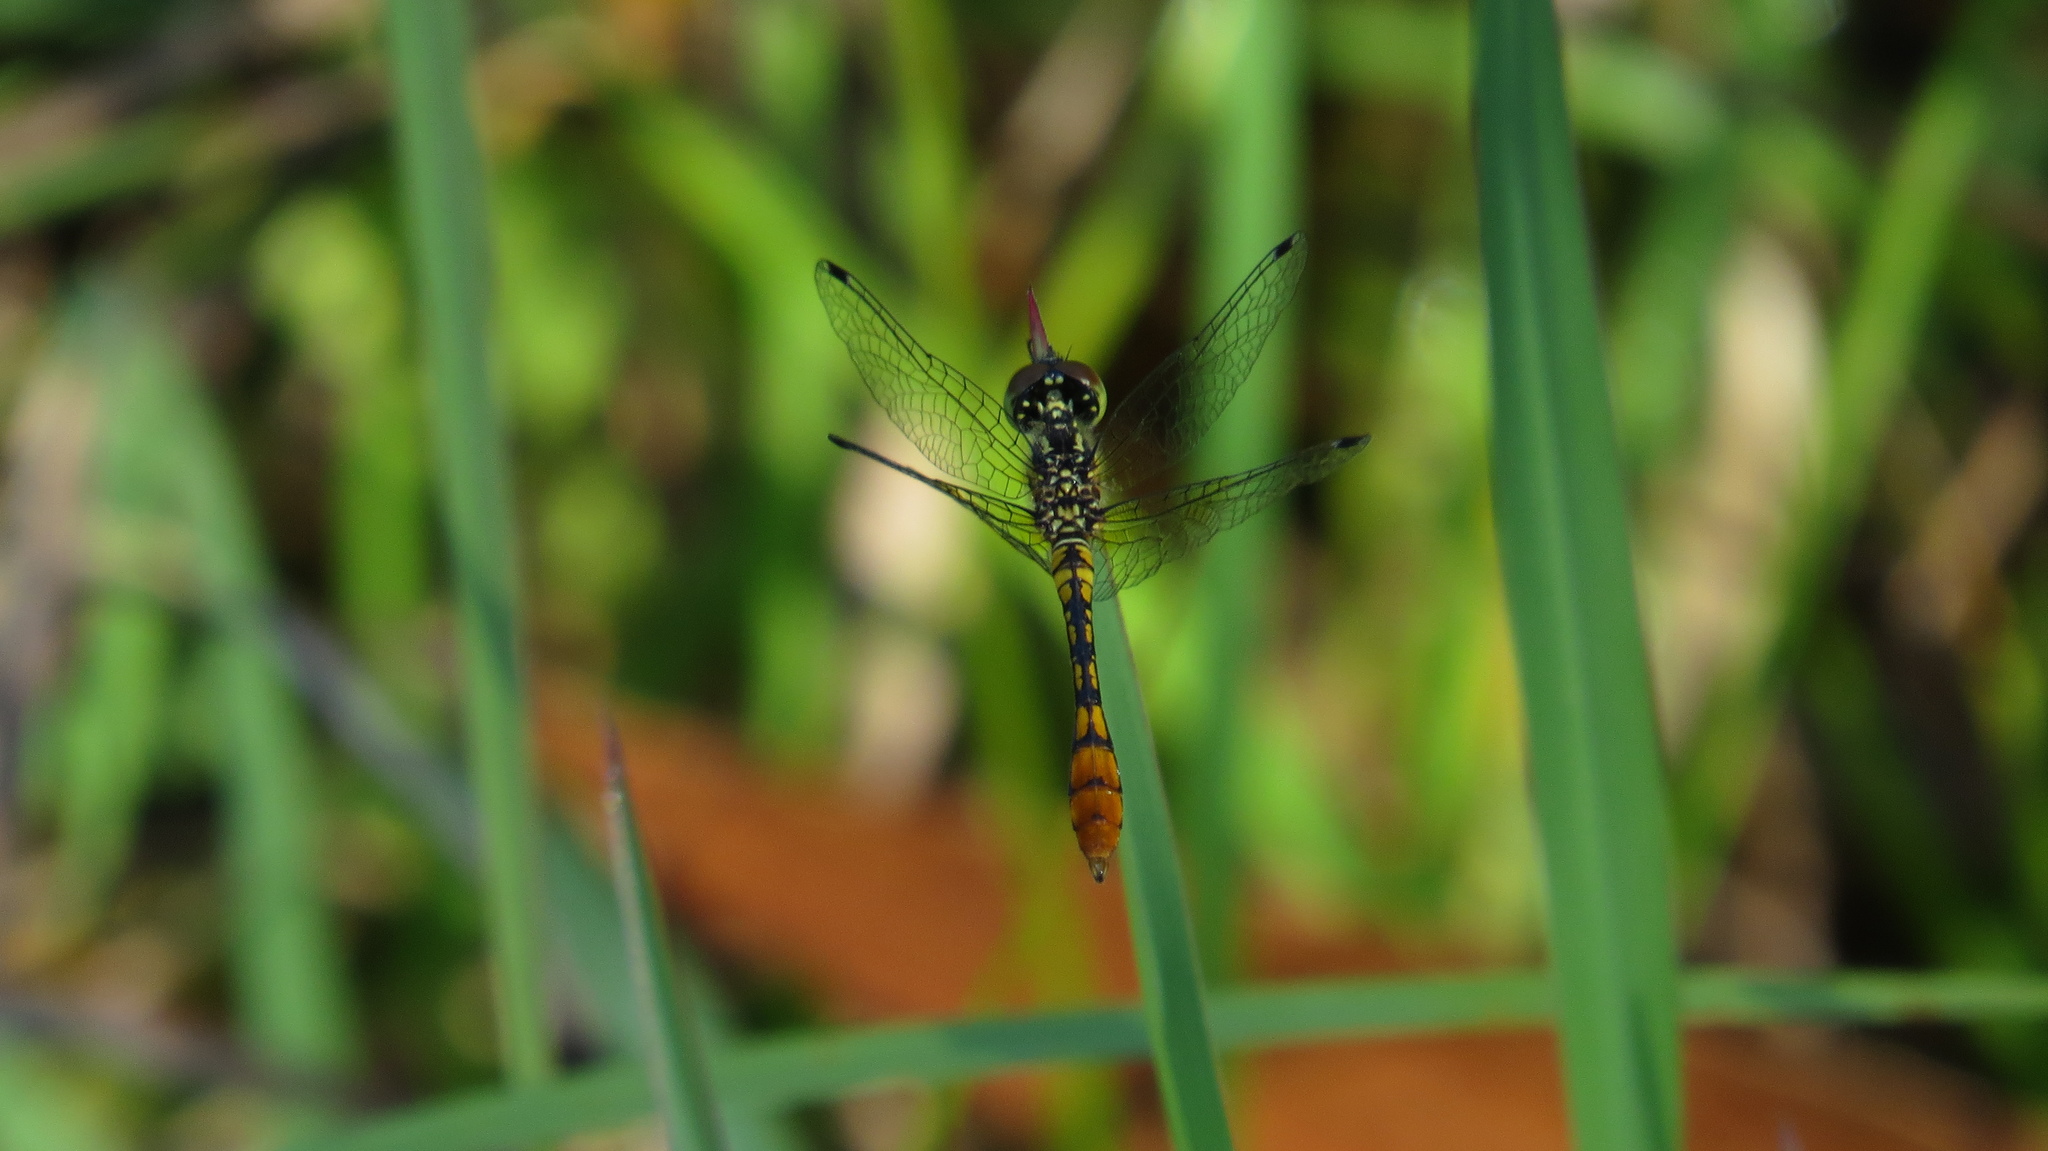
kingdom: Animalia
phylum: Arthropoda
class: Insecta
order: Odonata
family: Libellulidae
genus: Nannophya
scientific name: Nannophya australis
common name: Australian pygmyfly
